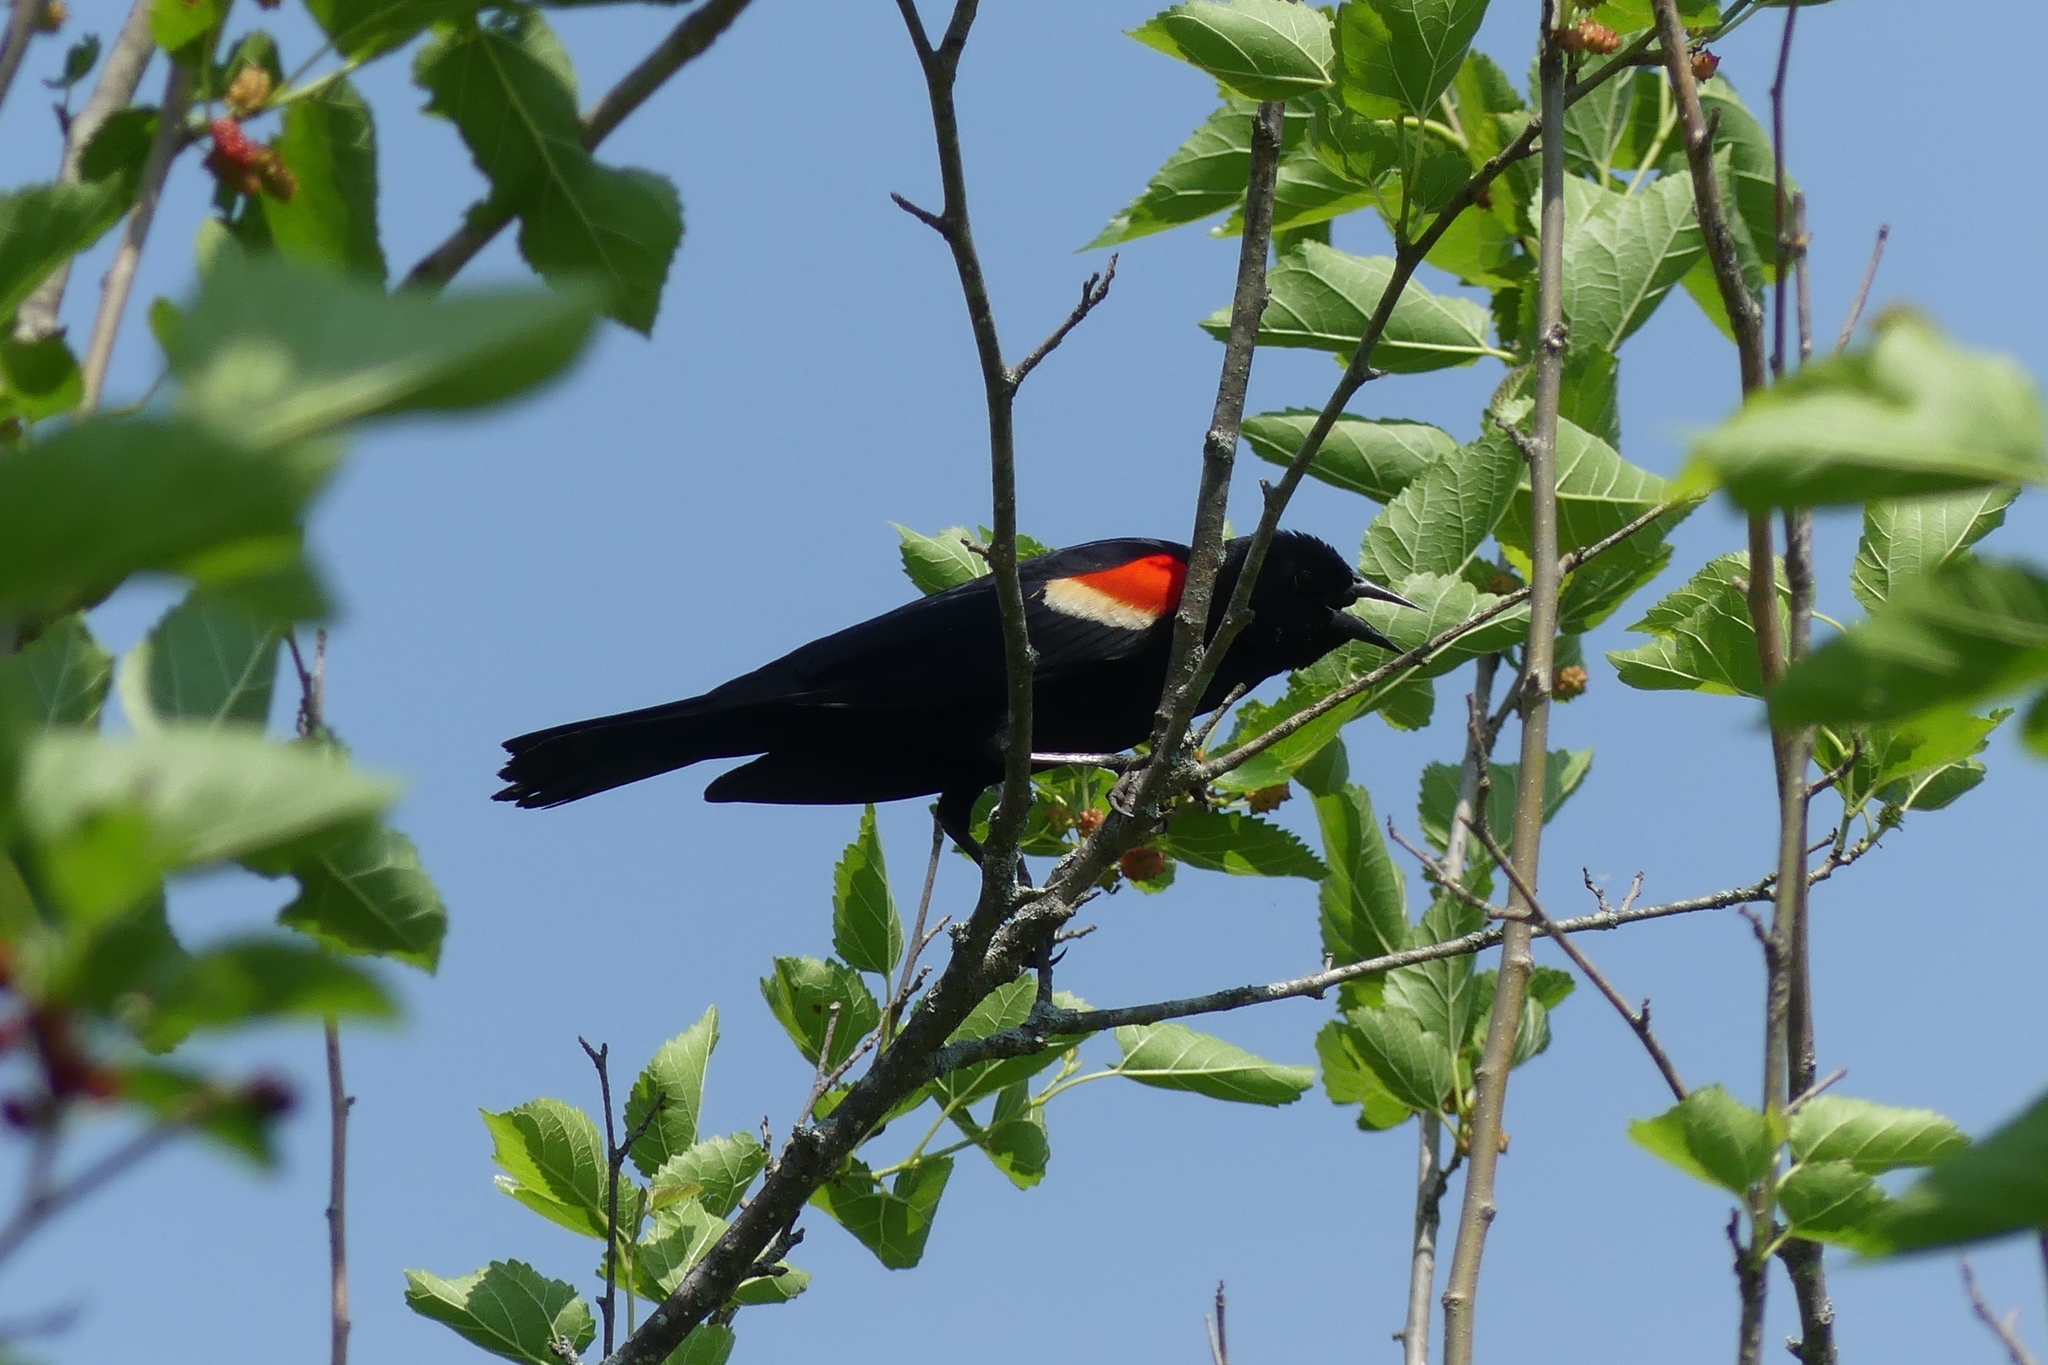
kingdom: Animalia
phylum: Chordata
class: Aves
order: Passeriformes
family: Icteridae
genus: Agelaius
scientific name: Agelaius phoeniceus
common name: Red-winged blackbird
